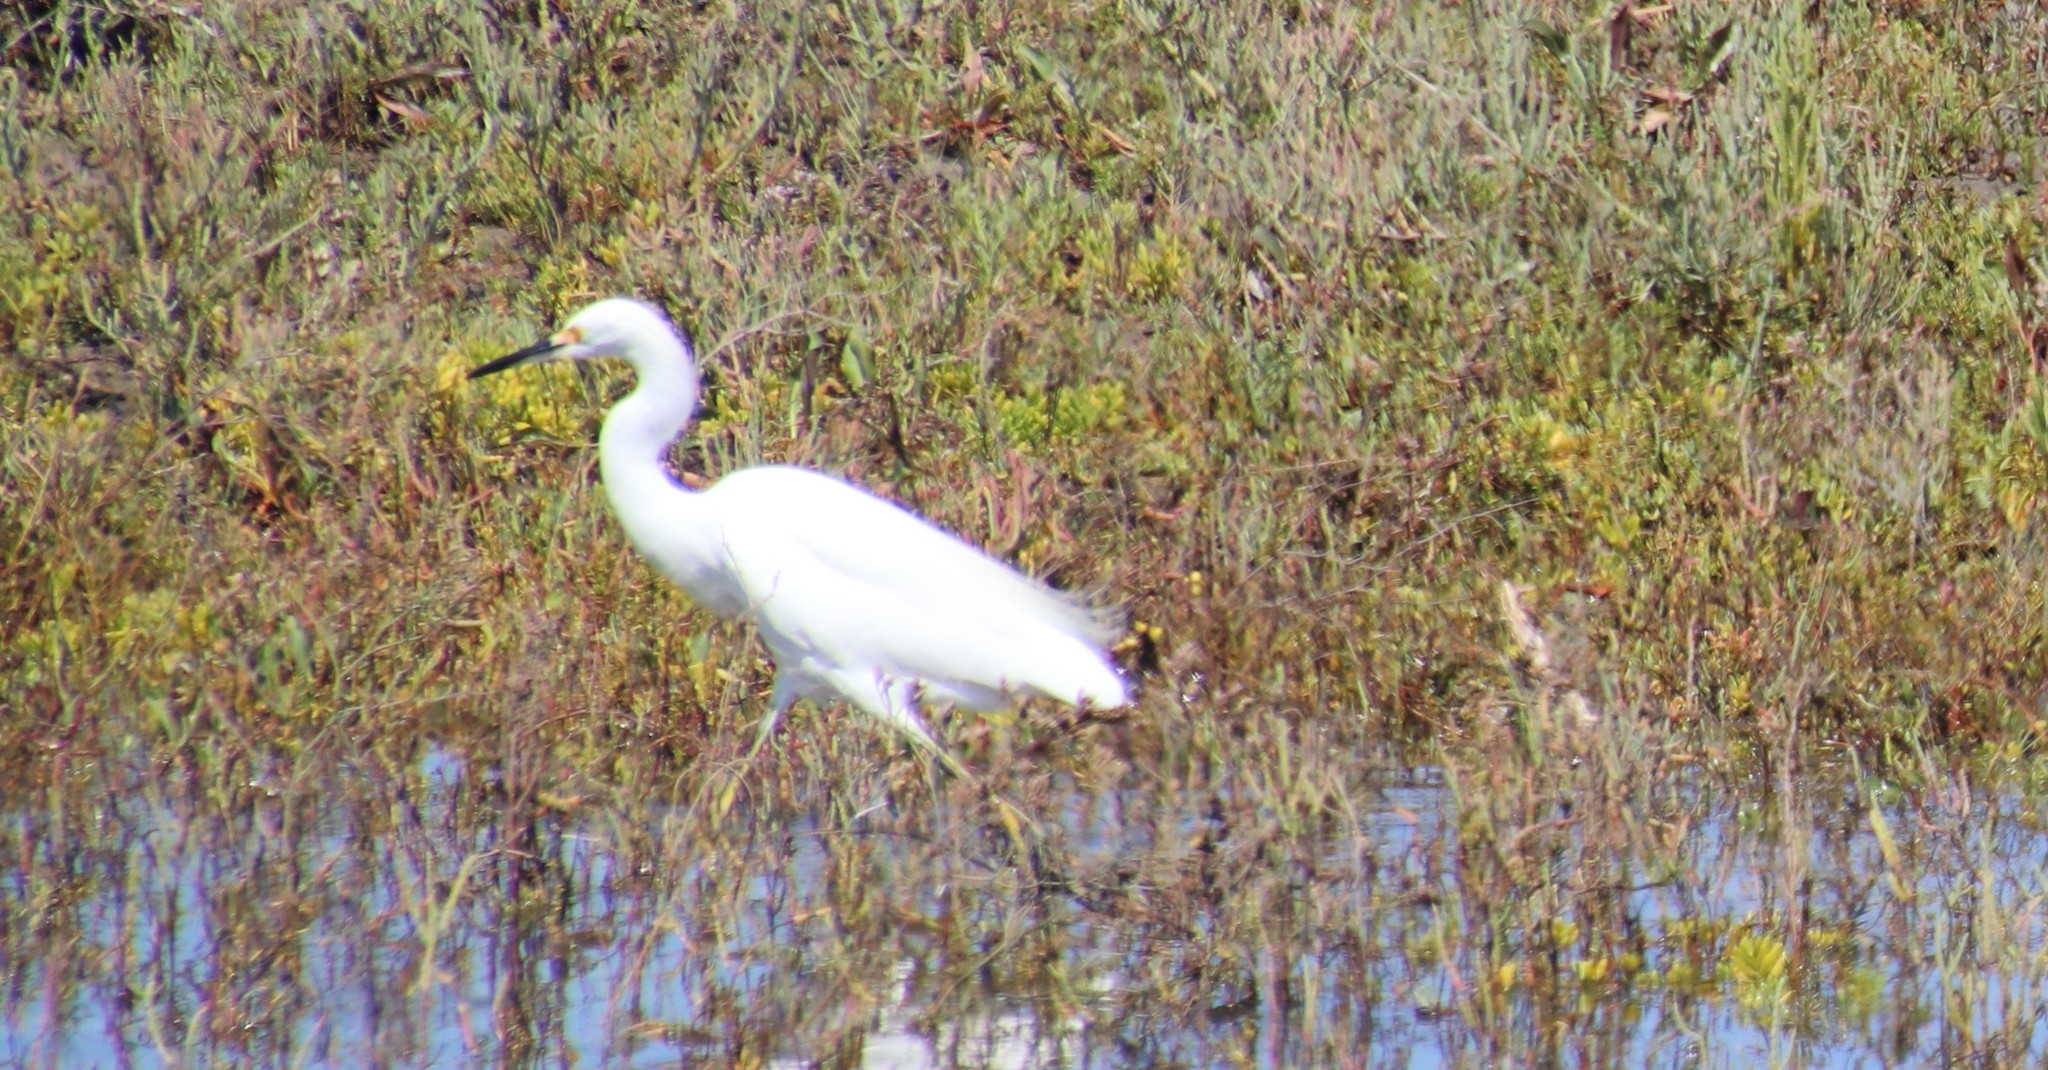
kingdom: Animalia
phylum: Chordata
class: Aves
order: Pelecaniformes
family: Ardeidae
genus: Egretta
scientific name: Egretta thula
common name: Snowy egret
